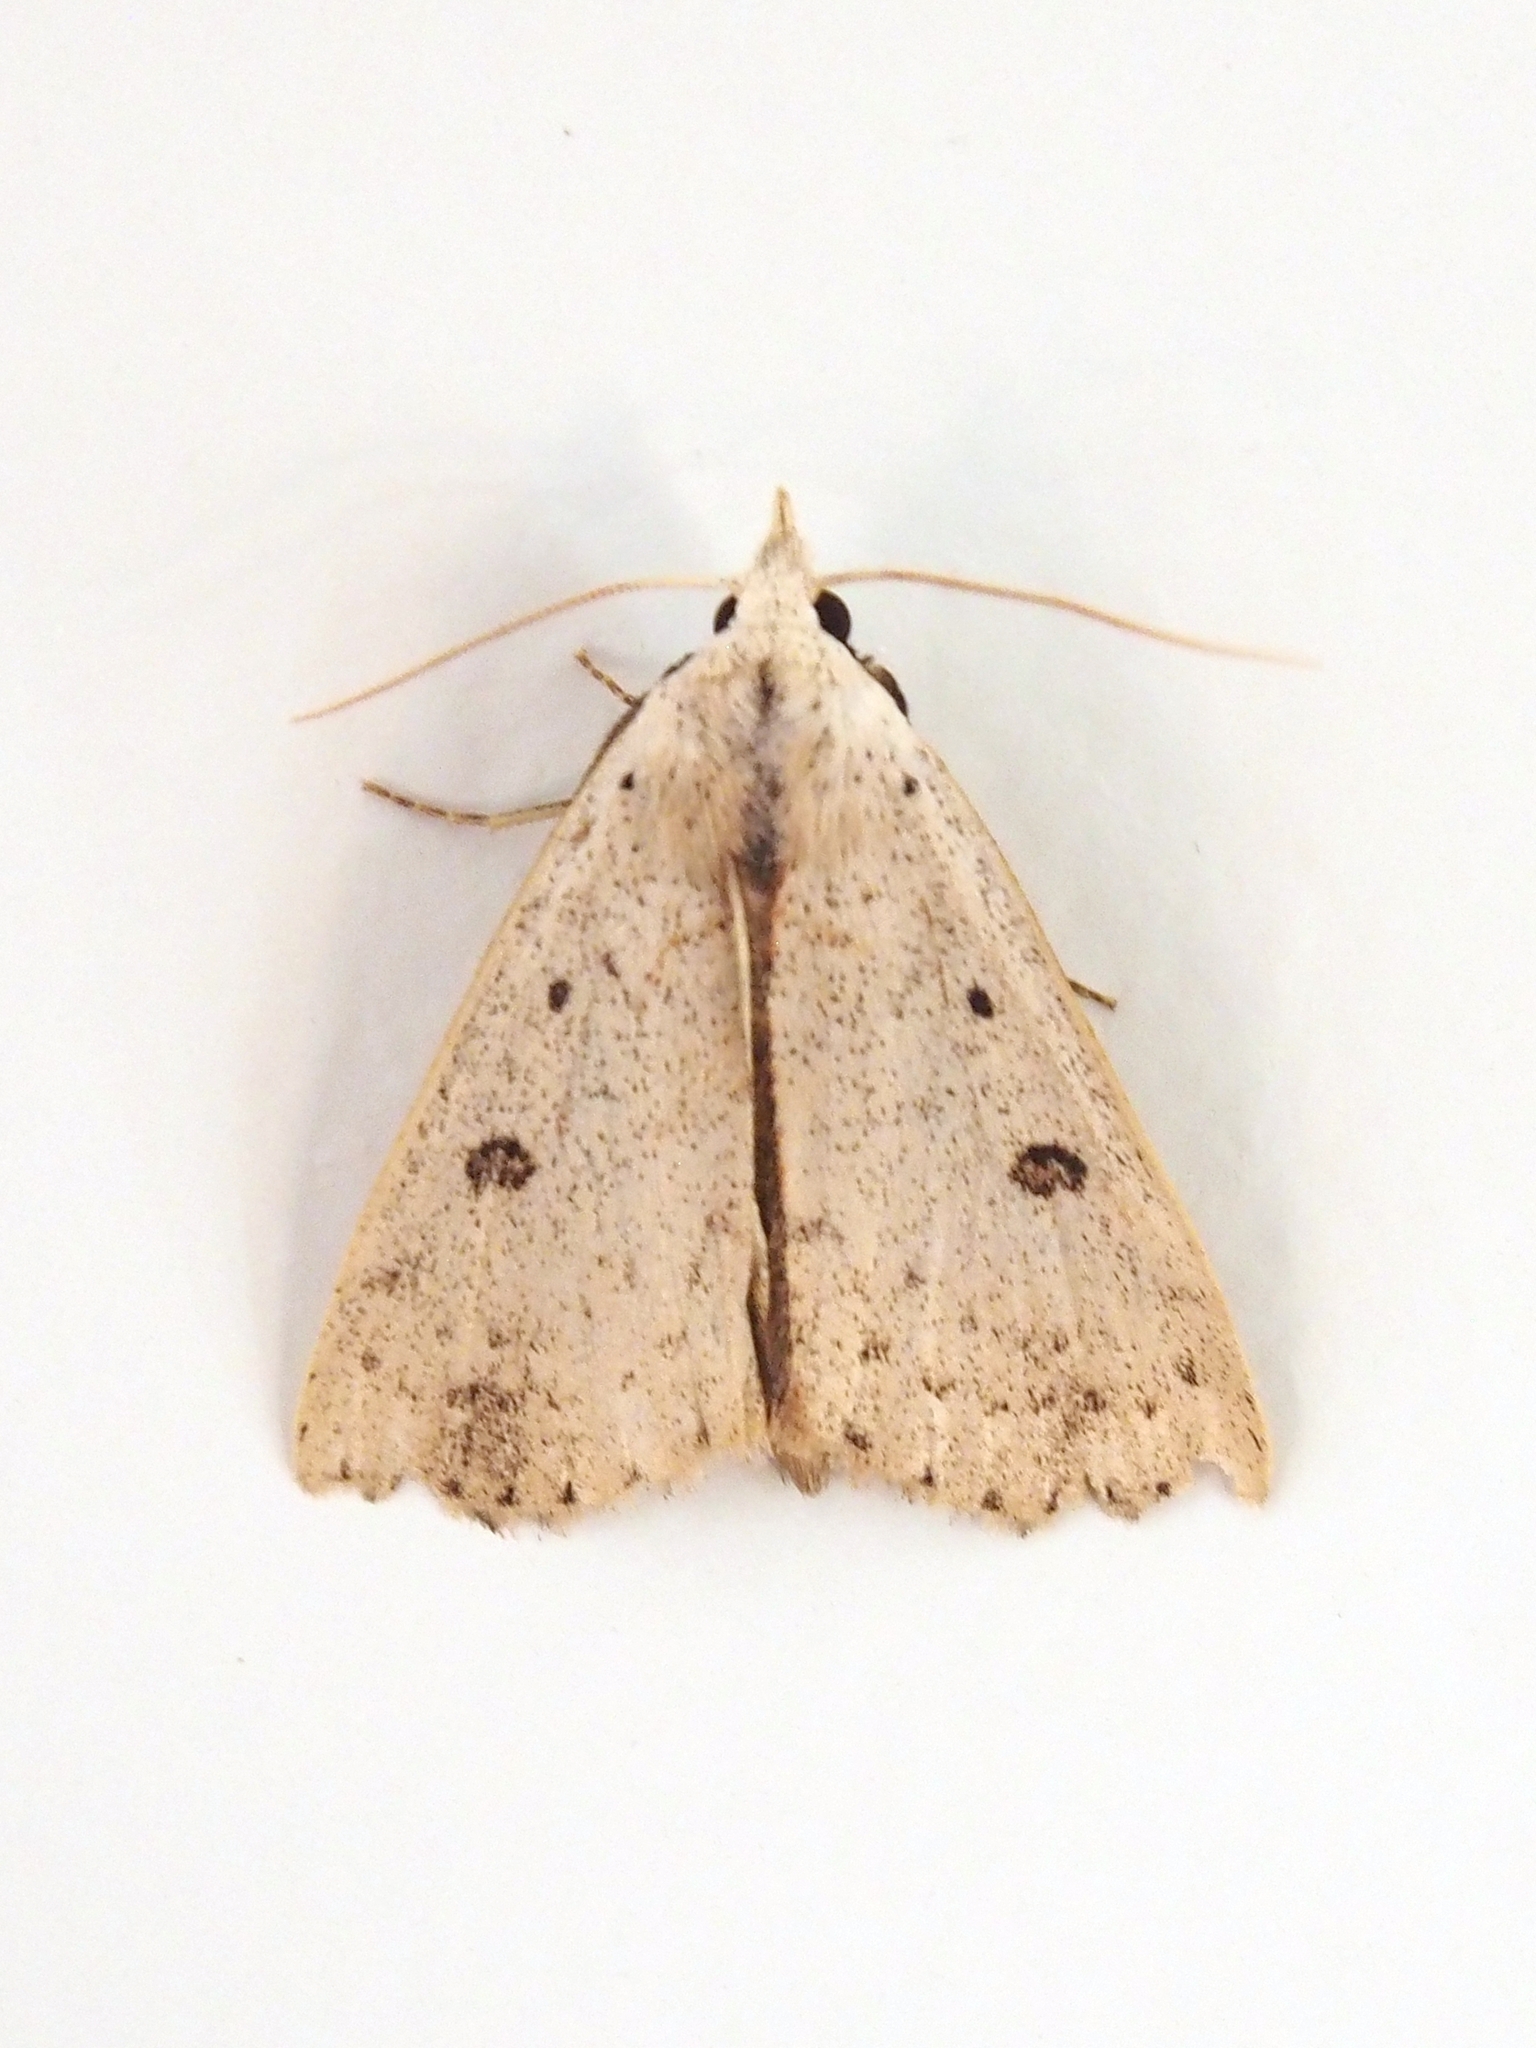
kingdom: Animalia
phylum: Arthropoda
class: Insecta
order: Lepidoptera
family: Erebidae
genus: Scolecocampa
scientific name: Scolecocampa liburna
